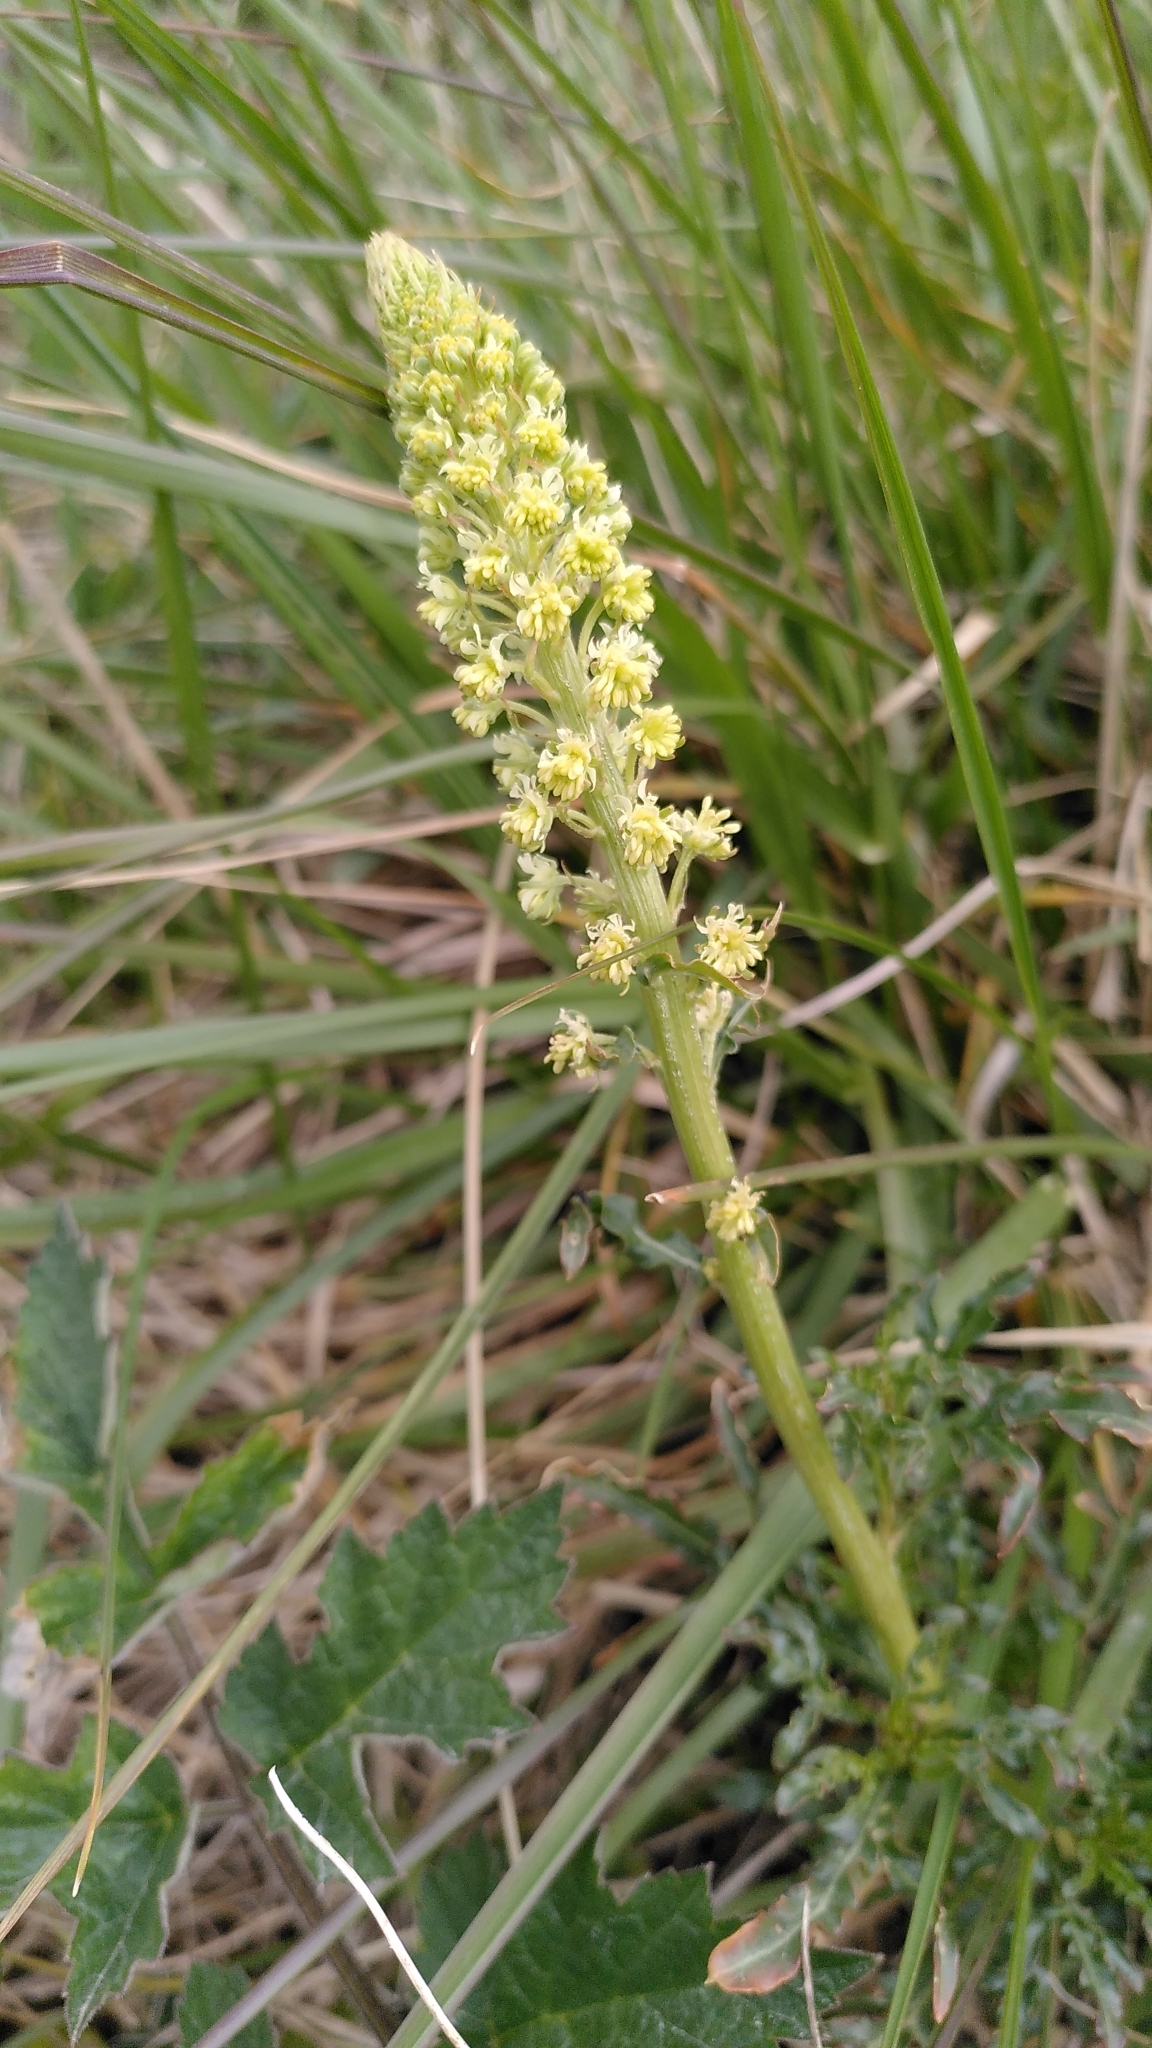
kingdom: Plantae
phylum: Tracheophyta
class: Magnoliopsida
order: Brassicales
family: Resedaceae
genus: Reseda
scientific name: Reseda lutea
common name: Wild mignonette
